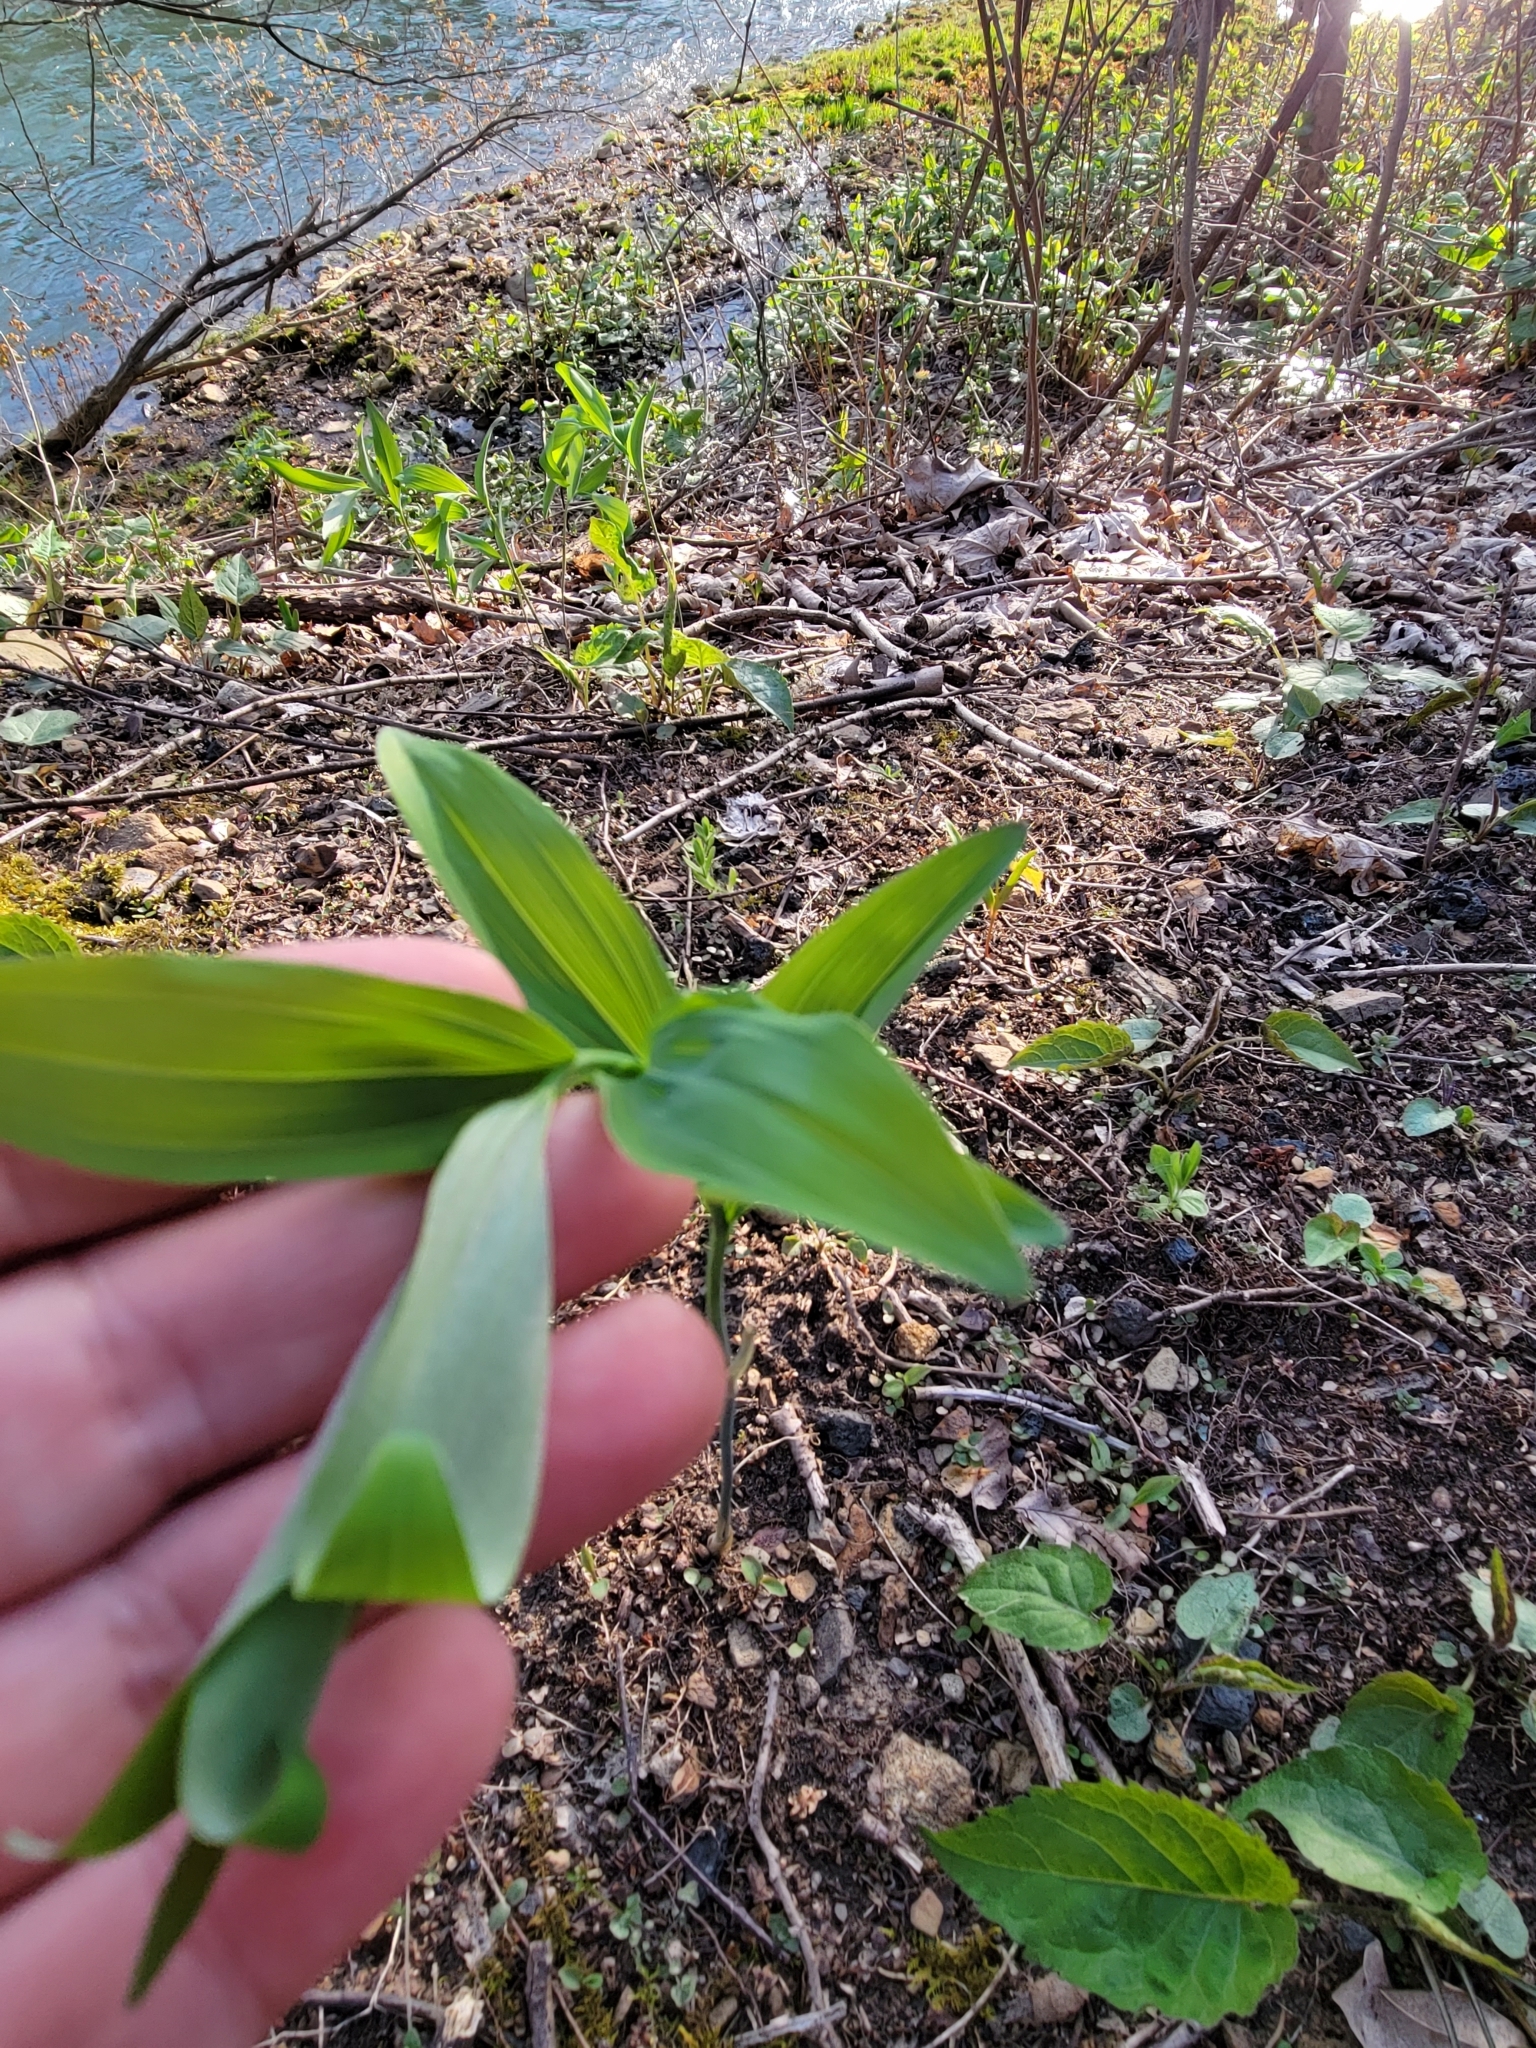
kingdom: Plantae
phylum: Tracheophyta
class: Liliopsida
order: Asparagales
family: Asparagaceae
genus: Polygonatum
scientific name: Polygonatum pubescens
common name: Downy solomon's seal
